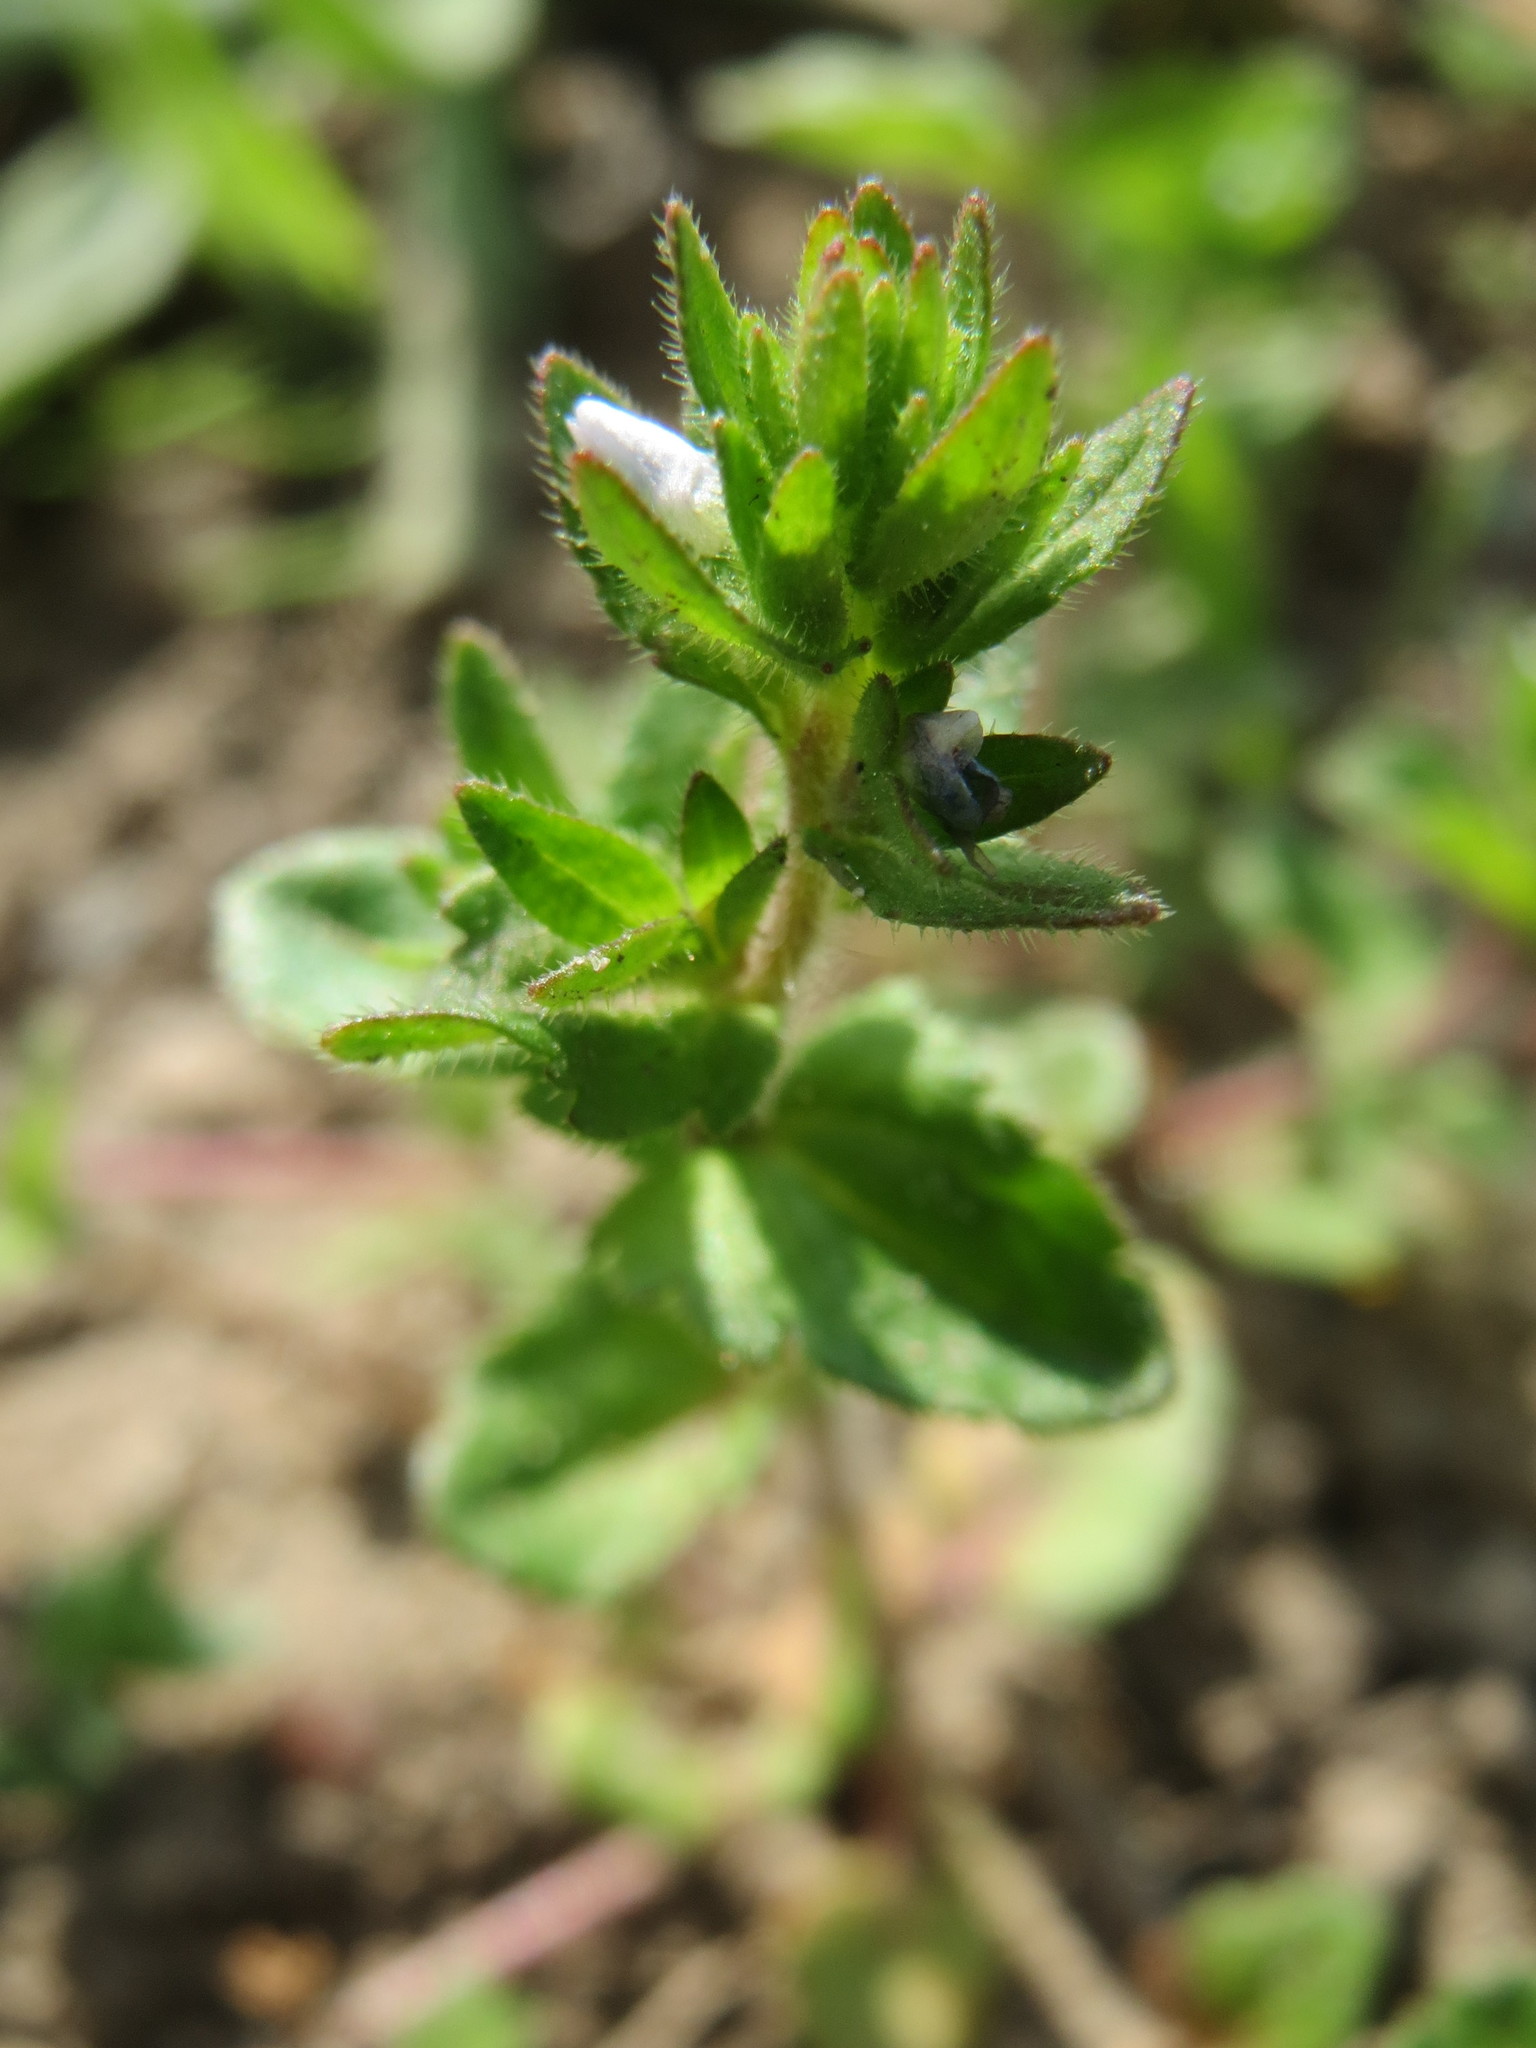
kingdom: Plantae
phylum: Tracheophyta
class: Magnoliopsida
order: Lamiales
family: Plantaginaceae
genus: Veronica
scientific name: Veronica arvensis
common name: Corn speedwell
